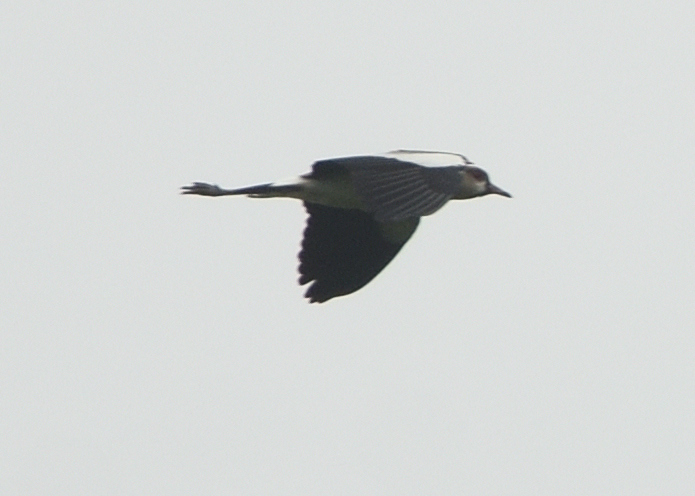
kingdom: Animalia
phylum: Chordata
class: Aves
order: Charadriiformes
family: Charadriidae
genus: Vanellus
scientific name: Vanellus chilensis
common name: Southern lapwing
